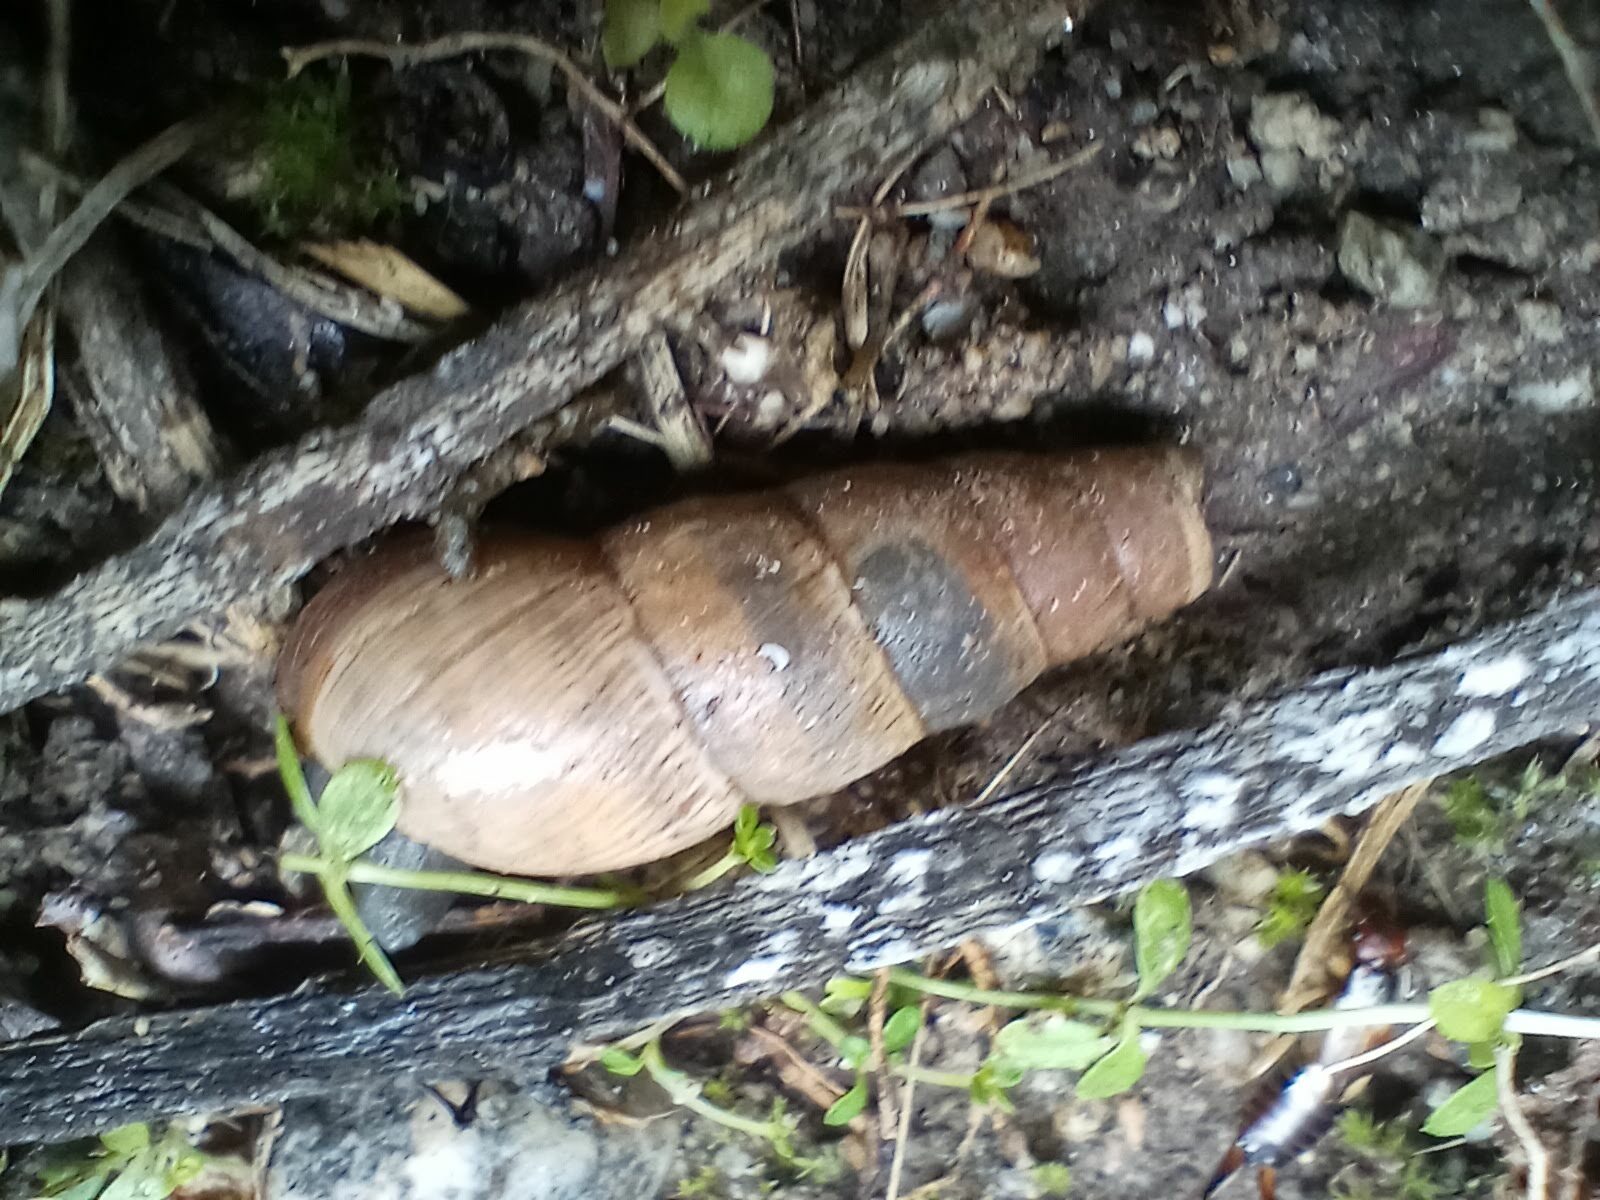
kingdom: Animalia
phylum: Mollusca
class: Gastropoda
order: Stylommatophora
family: Achatinidae
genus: Rumina
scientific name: Rumina decollata
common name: Decollate snail
